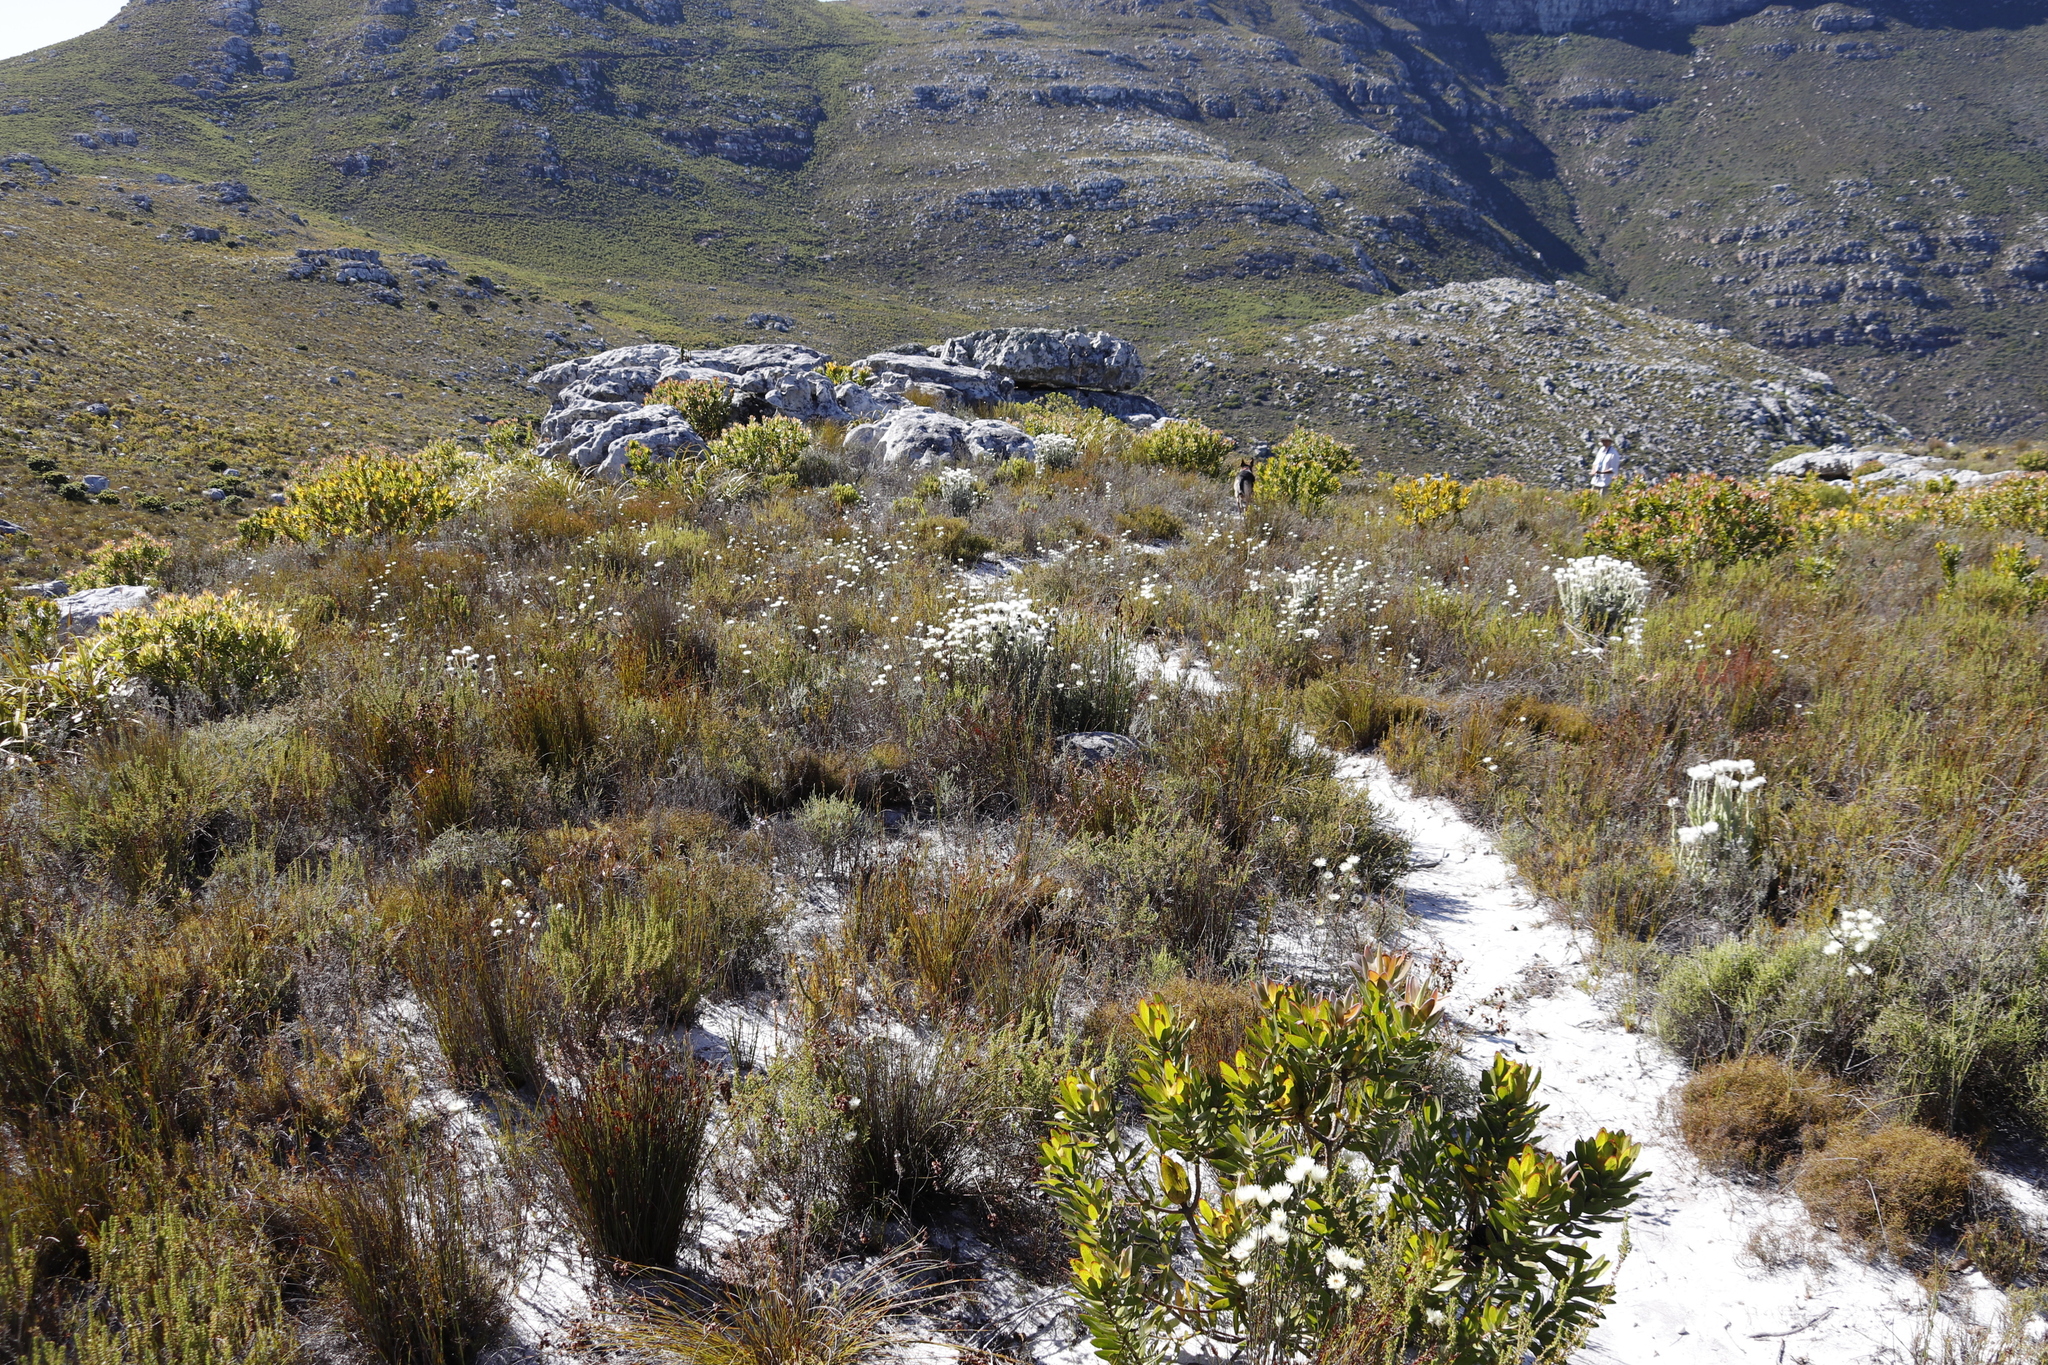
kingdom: Plantae
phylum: Tracheophyta
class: Magnoliopsida
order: Asterales
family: Asteraceae
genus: Edmondia
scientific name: Edmondia sesamoides
